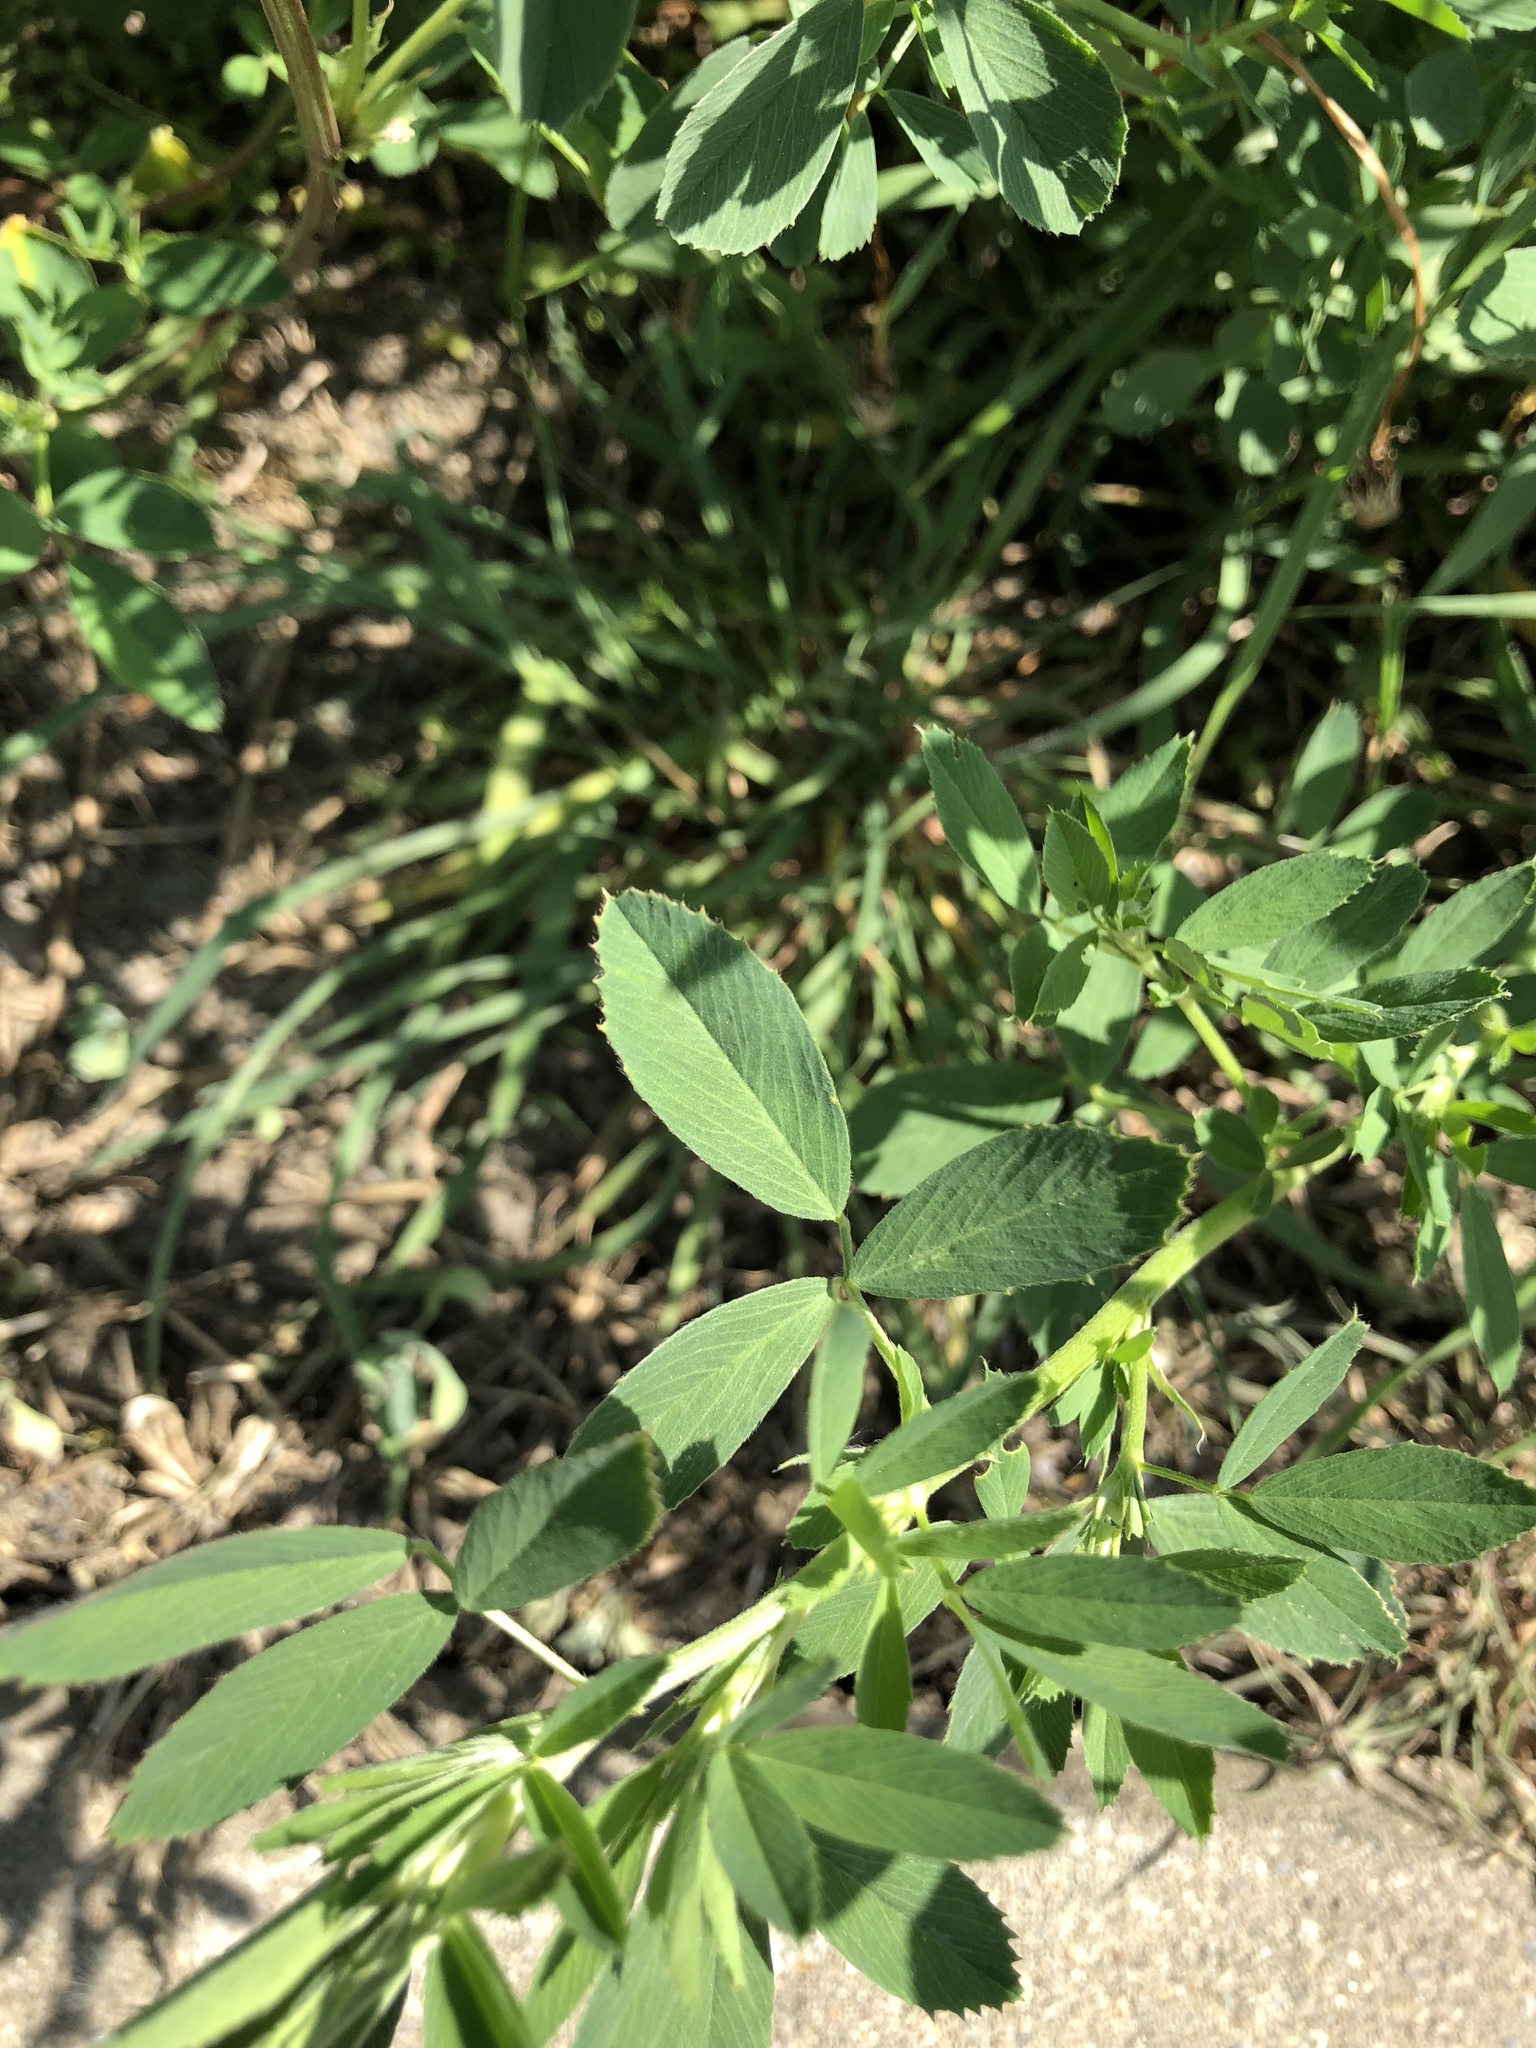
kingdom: Plantae
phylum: Tracheophyta
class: Magnoliopsida
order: Fabales
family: Fabaceae
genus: Medicago
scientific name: Medicago sativa
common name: Alfalfa
